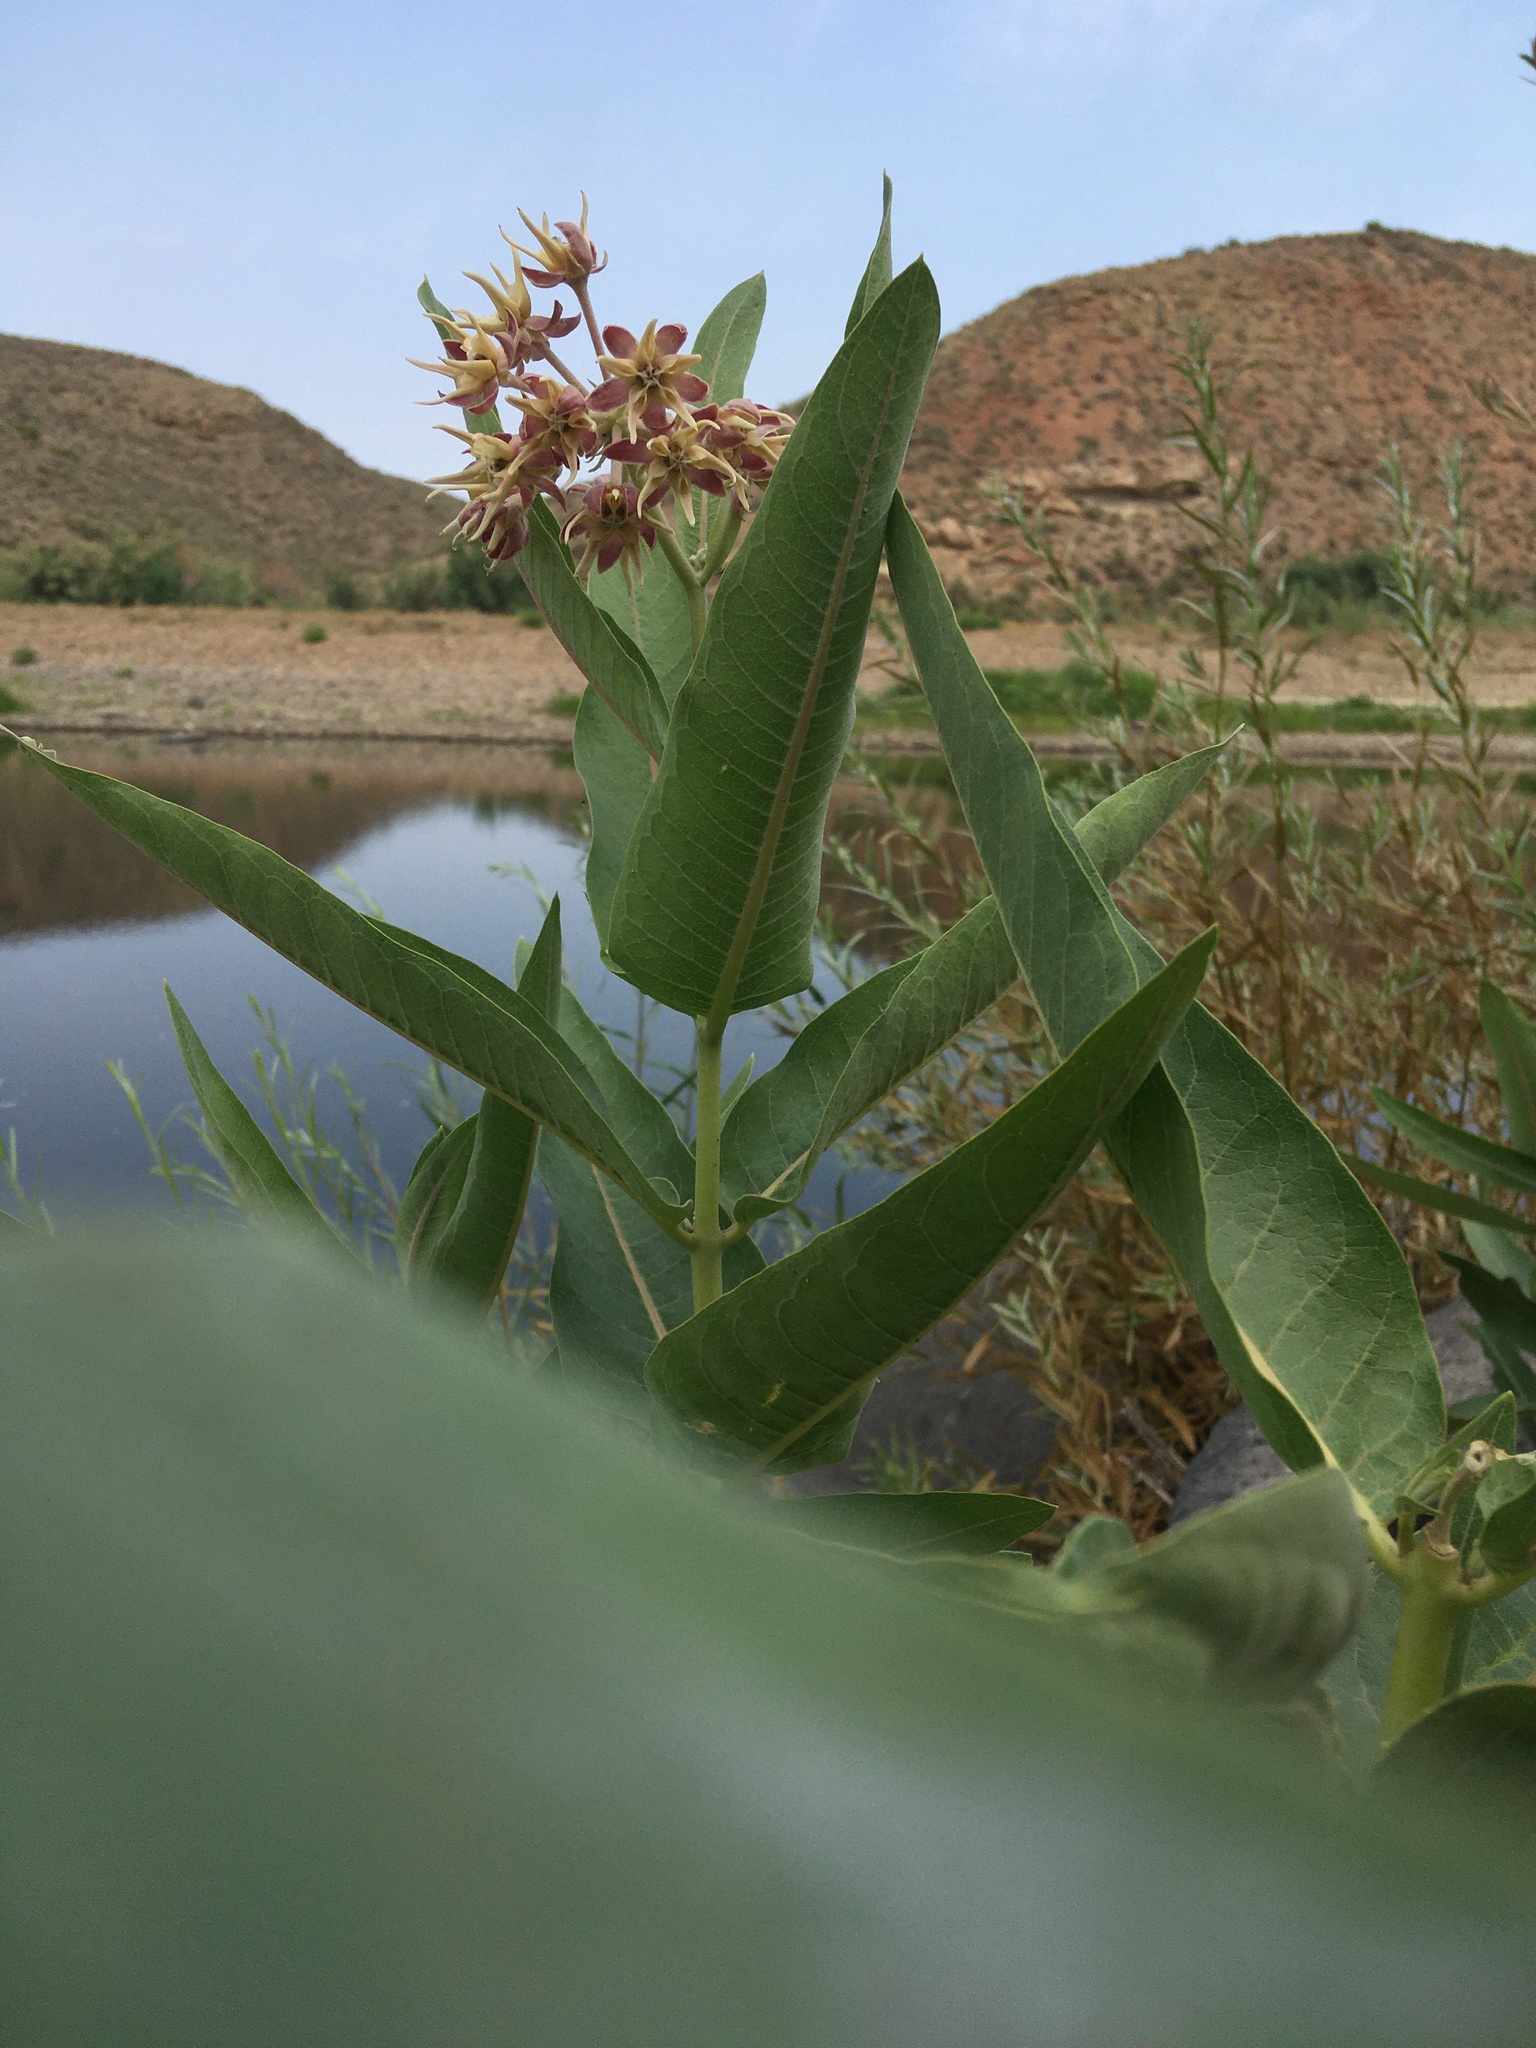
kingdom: Plantae
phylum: Tracheophyta
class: Magnoliopsida
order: Gentianales
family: Apocynaceae
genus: Asclepias
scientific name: Asclepias speciosa
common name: Showy milkweed
